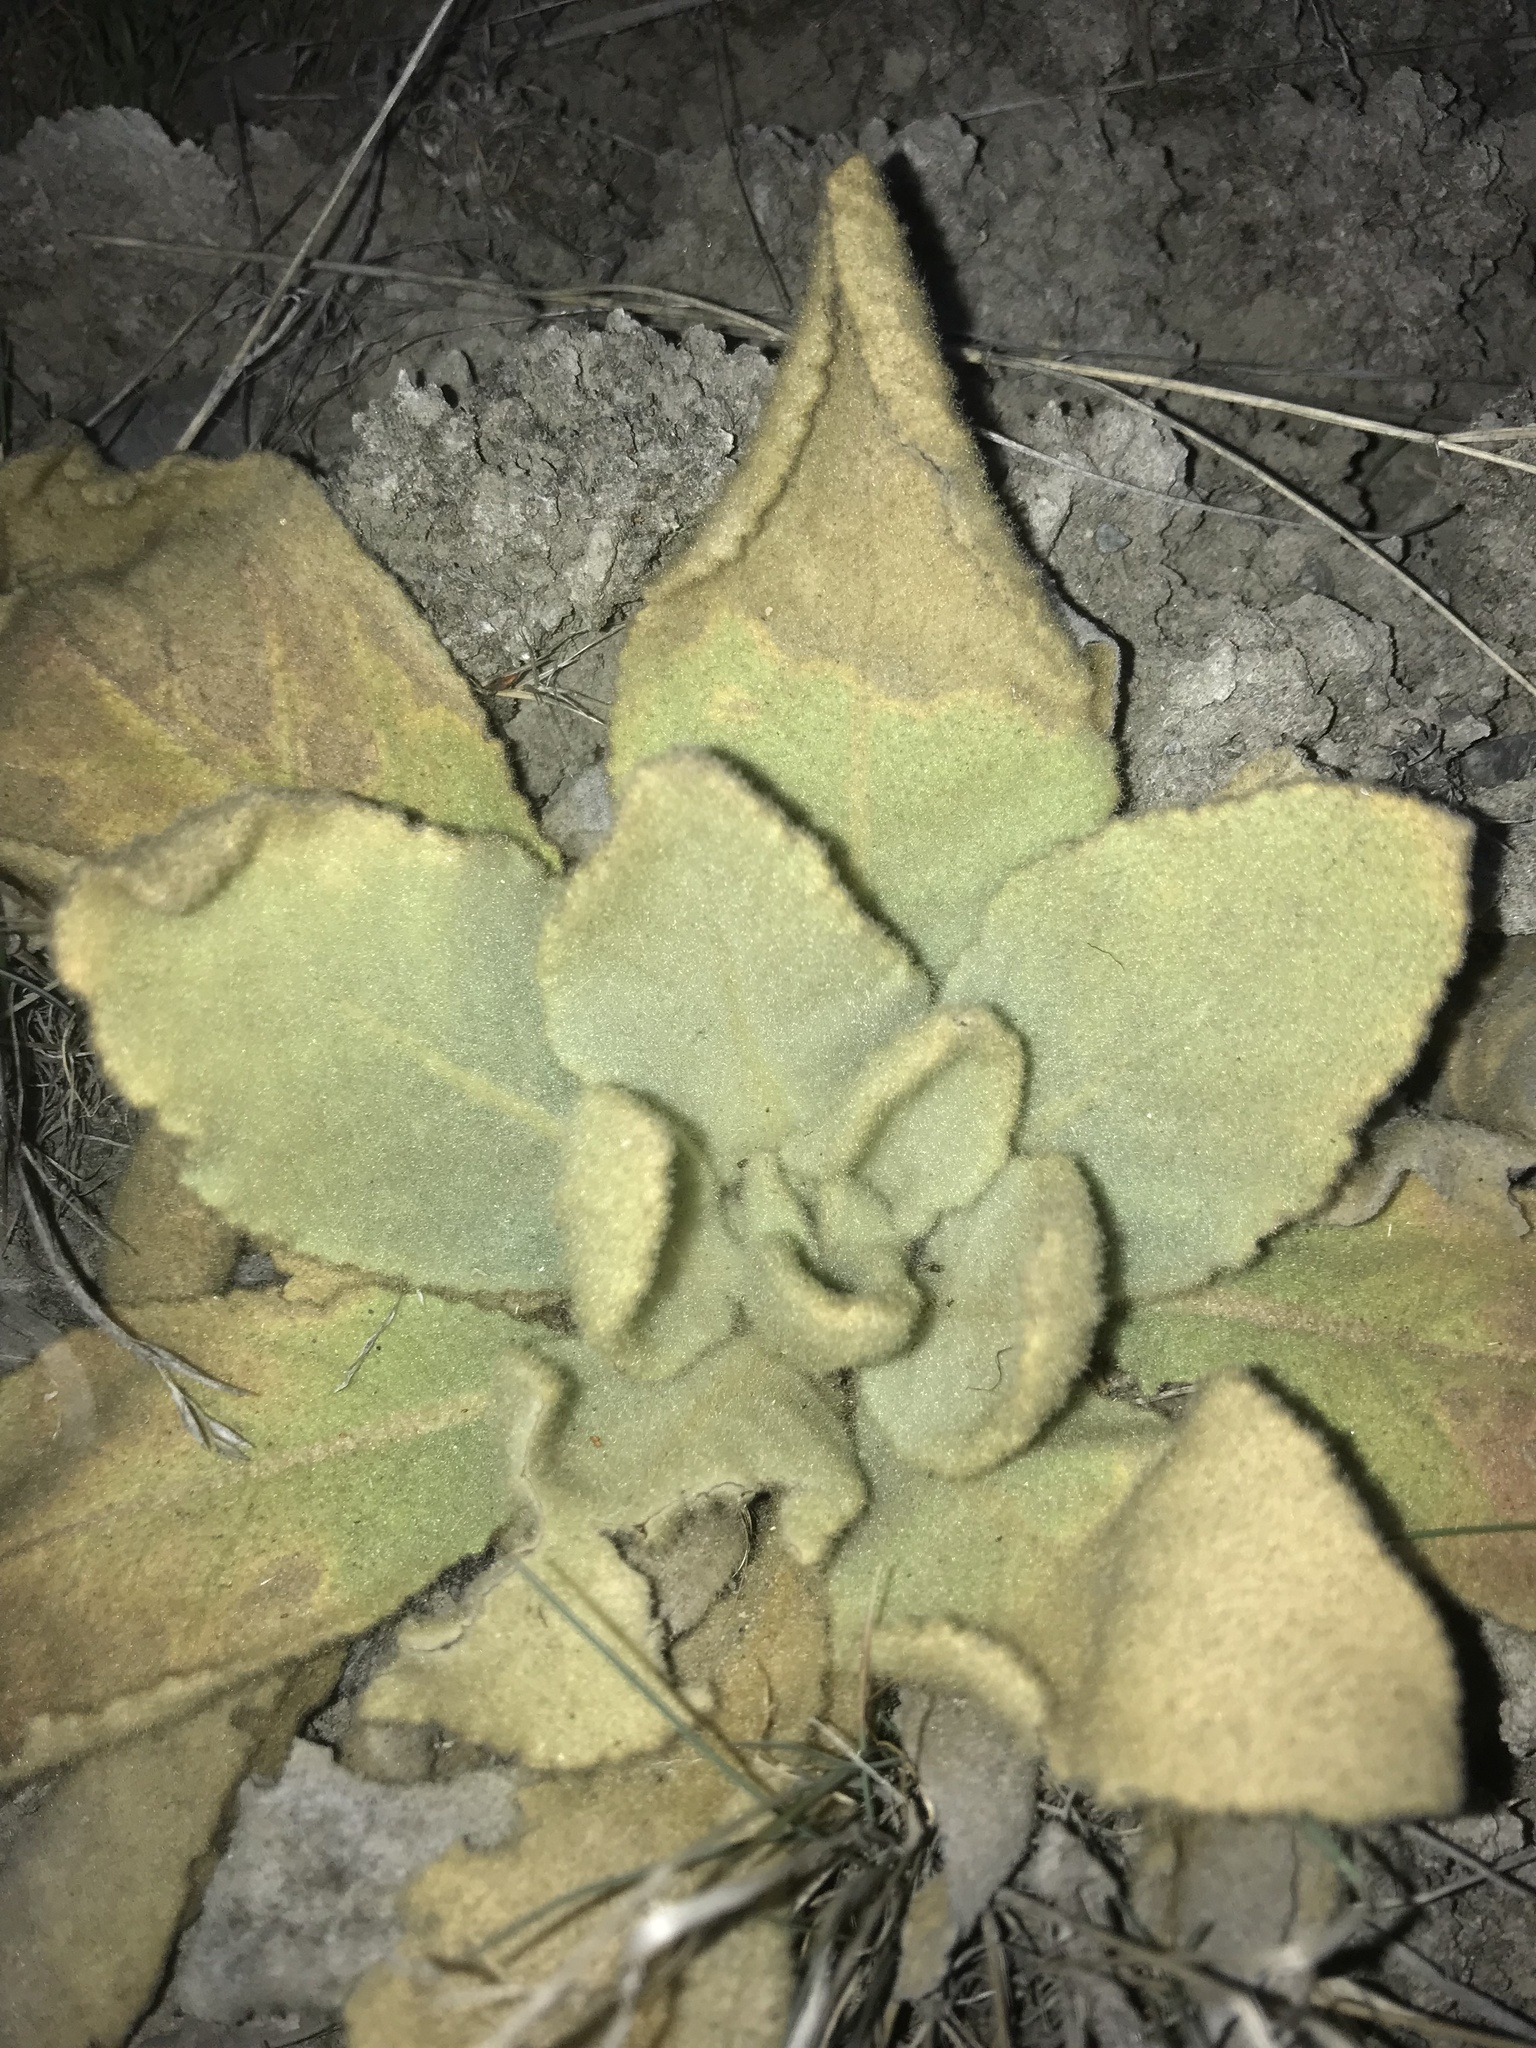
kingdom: Plantae
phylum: Tracheophyta
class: Magnoliopsida
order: Lamiales
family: Scrophulariaceae
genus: Verbascum
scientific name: Verbascum thapsus
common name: Common mullein
